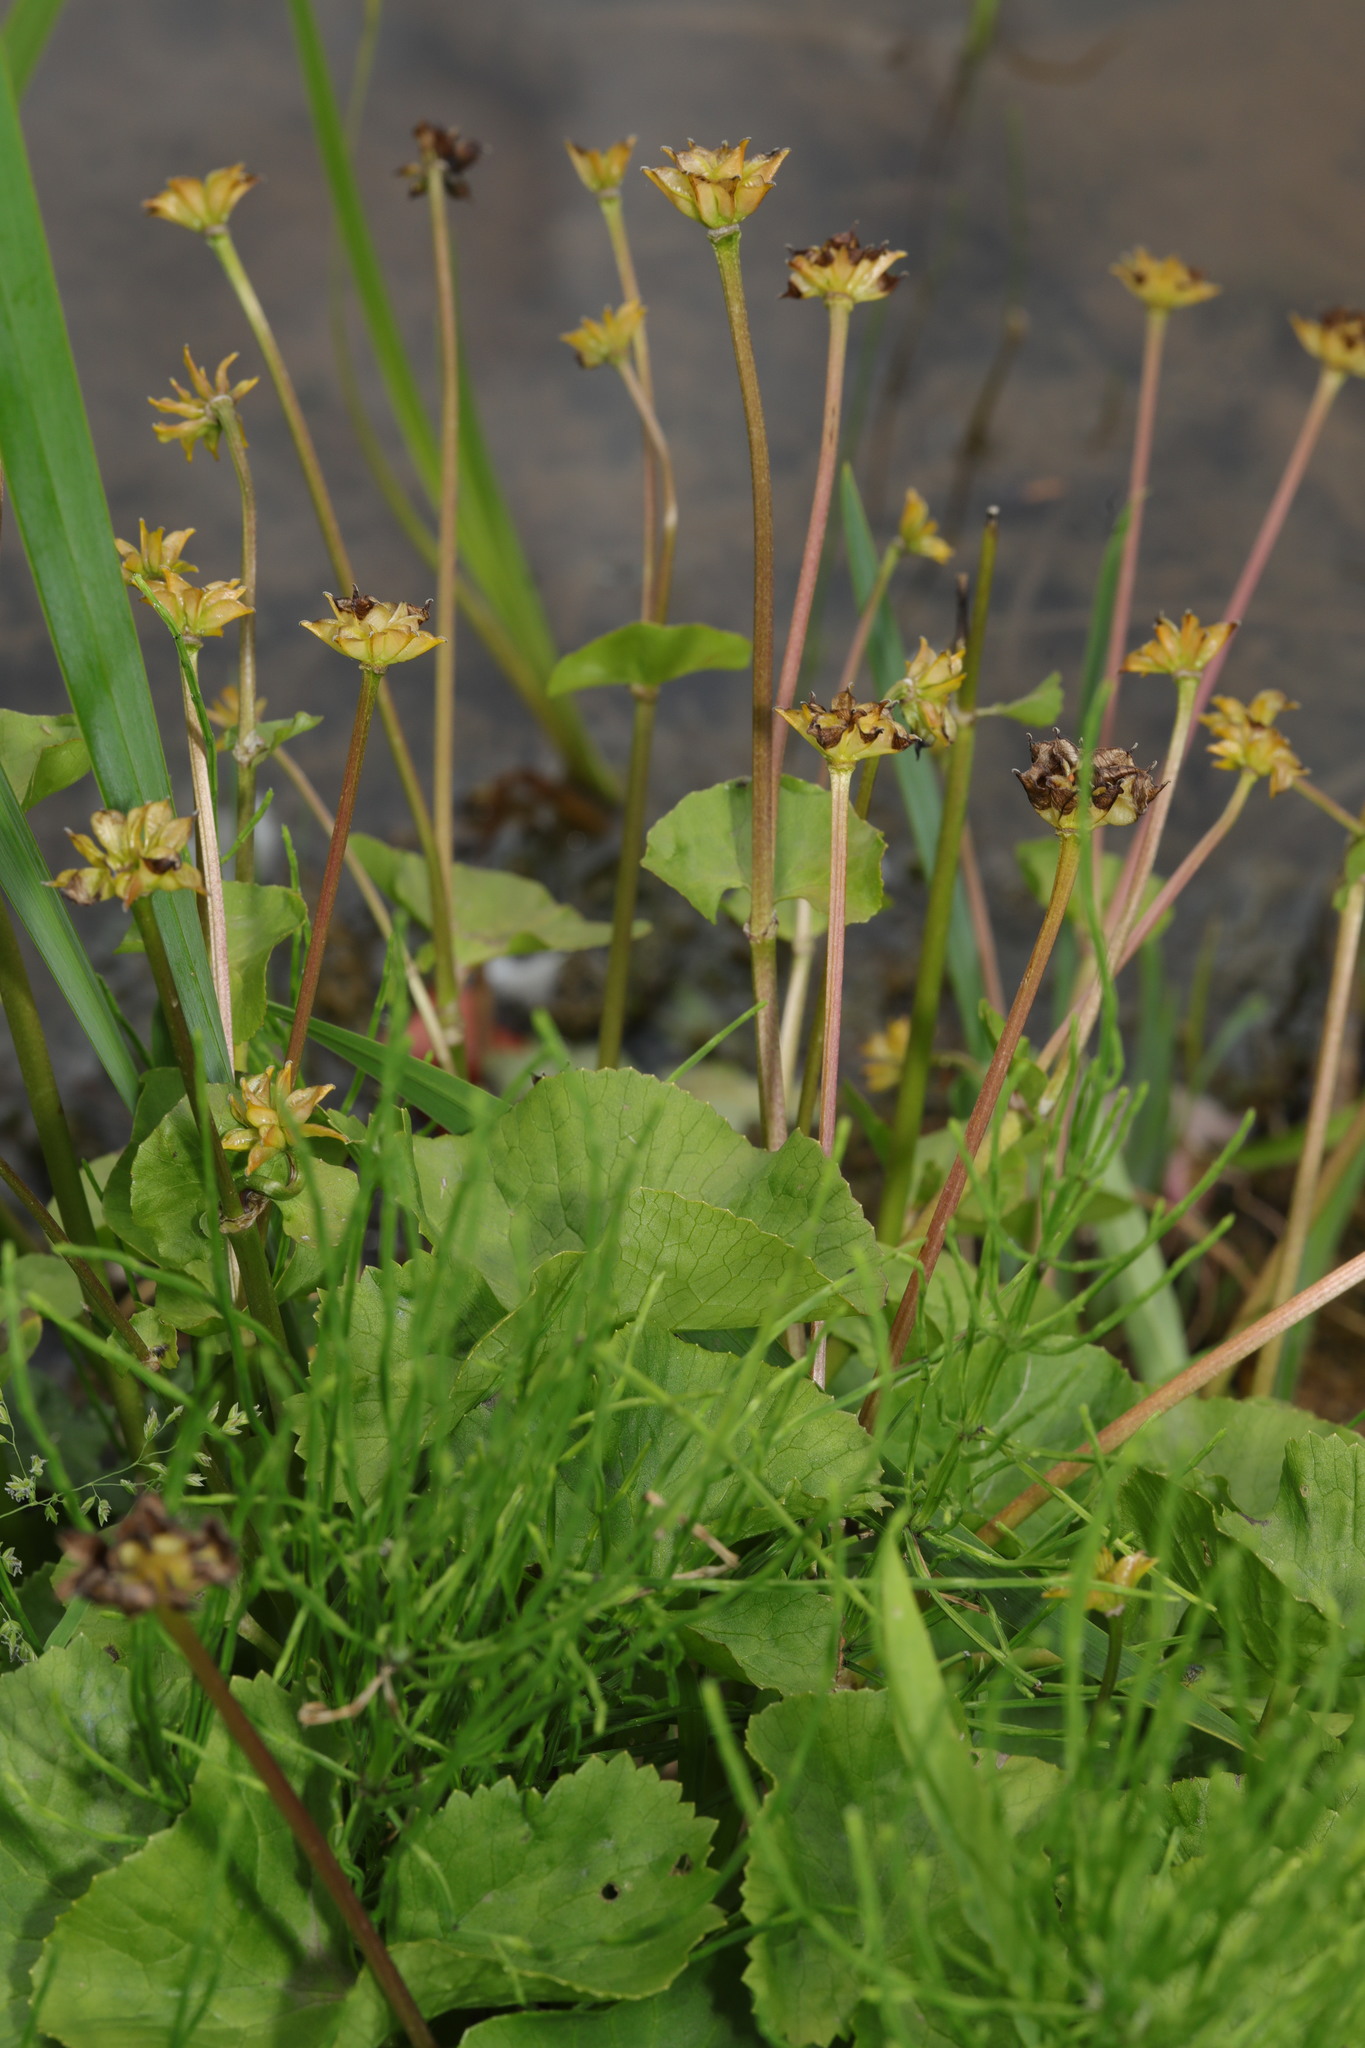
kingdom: Plantae
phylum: Tracheophyta
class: Magnoliopsida
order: Ranunculales
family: Ranunculaceae
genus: Caltha
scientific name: Caltha palustris
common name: Marsh marigold
